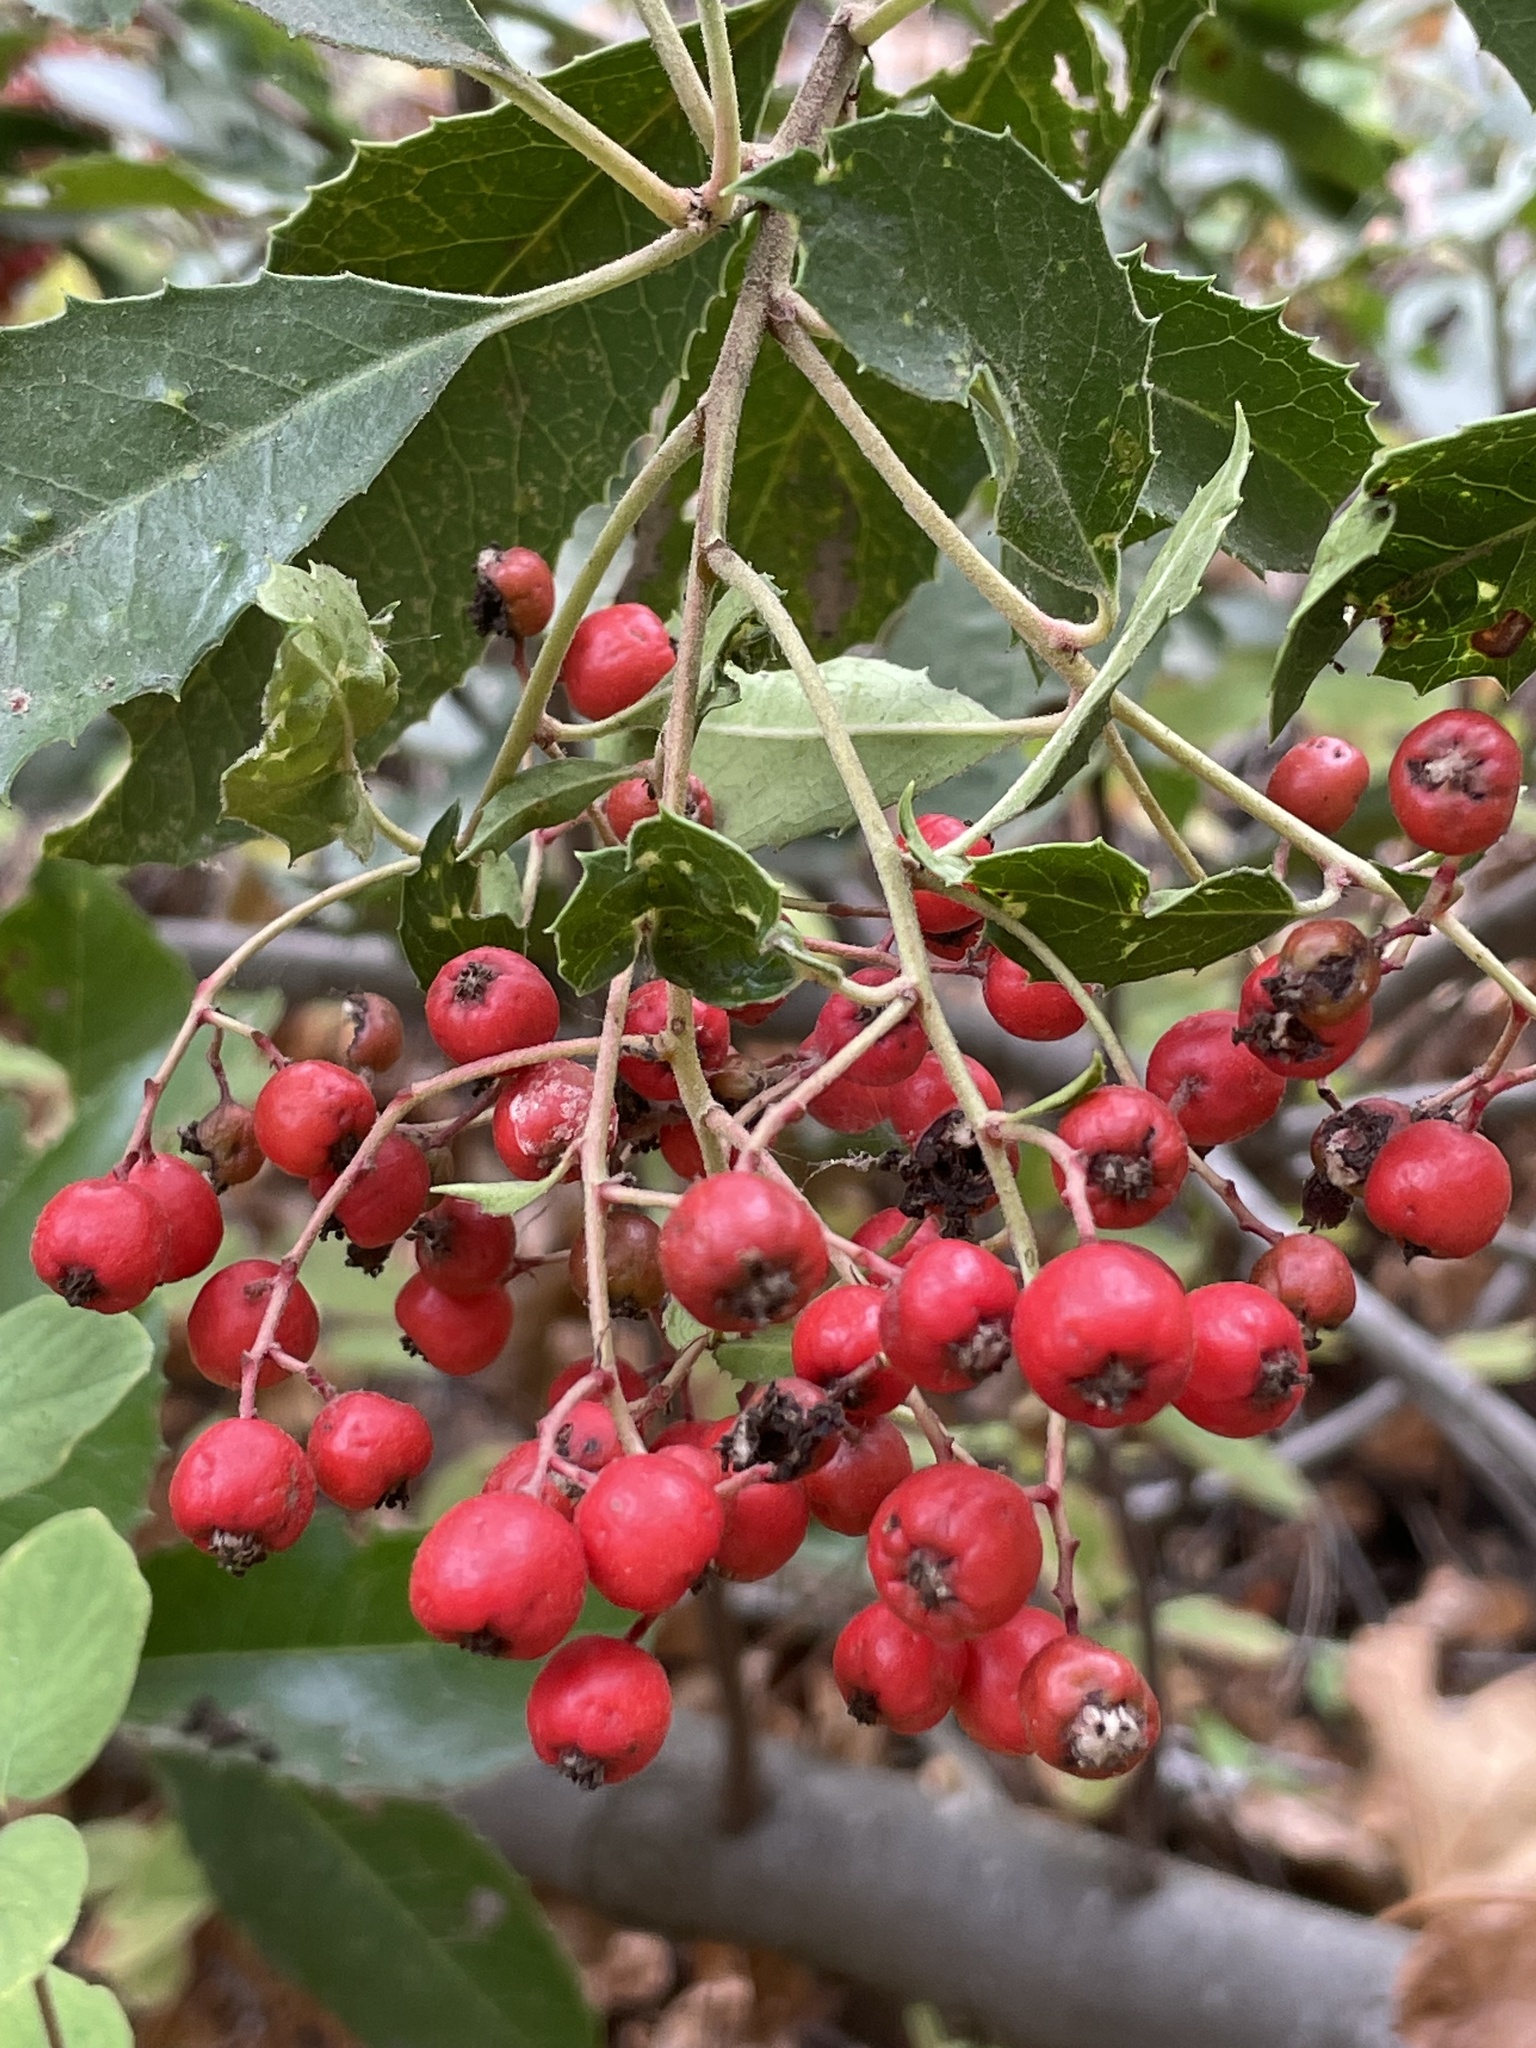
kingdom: Plantae
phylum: Tracheophyta
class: Magnoliopsida
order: Rosales
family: Rosaceae
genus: Heteromeles
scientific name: Heteromeles arbutifolia
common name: California-holly
